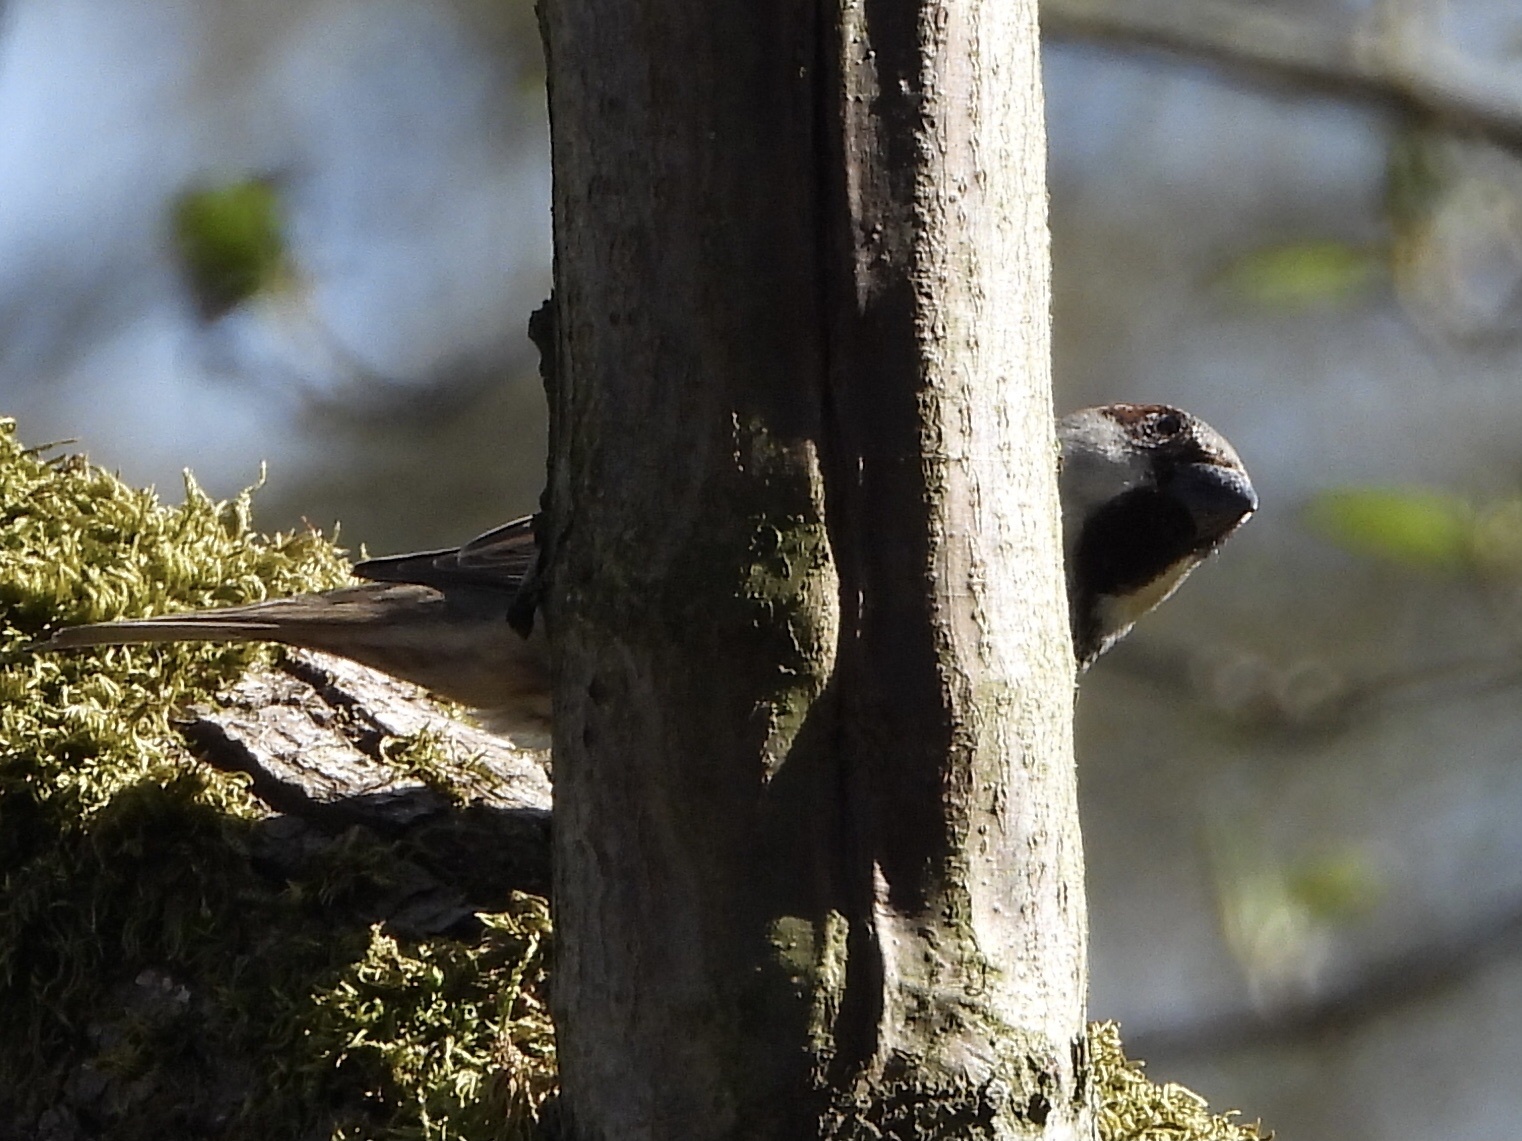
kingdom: Animalia
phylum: Chordata
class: Aves
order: Passeriformes
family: Passeridae
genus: Passer
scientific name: Passer domesticus
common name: House sparrow
